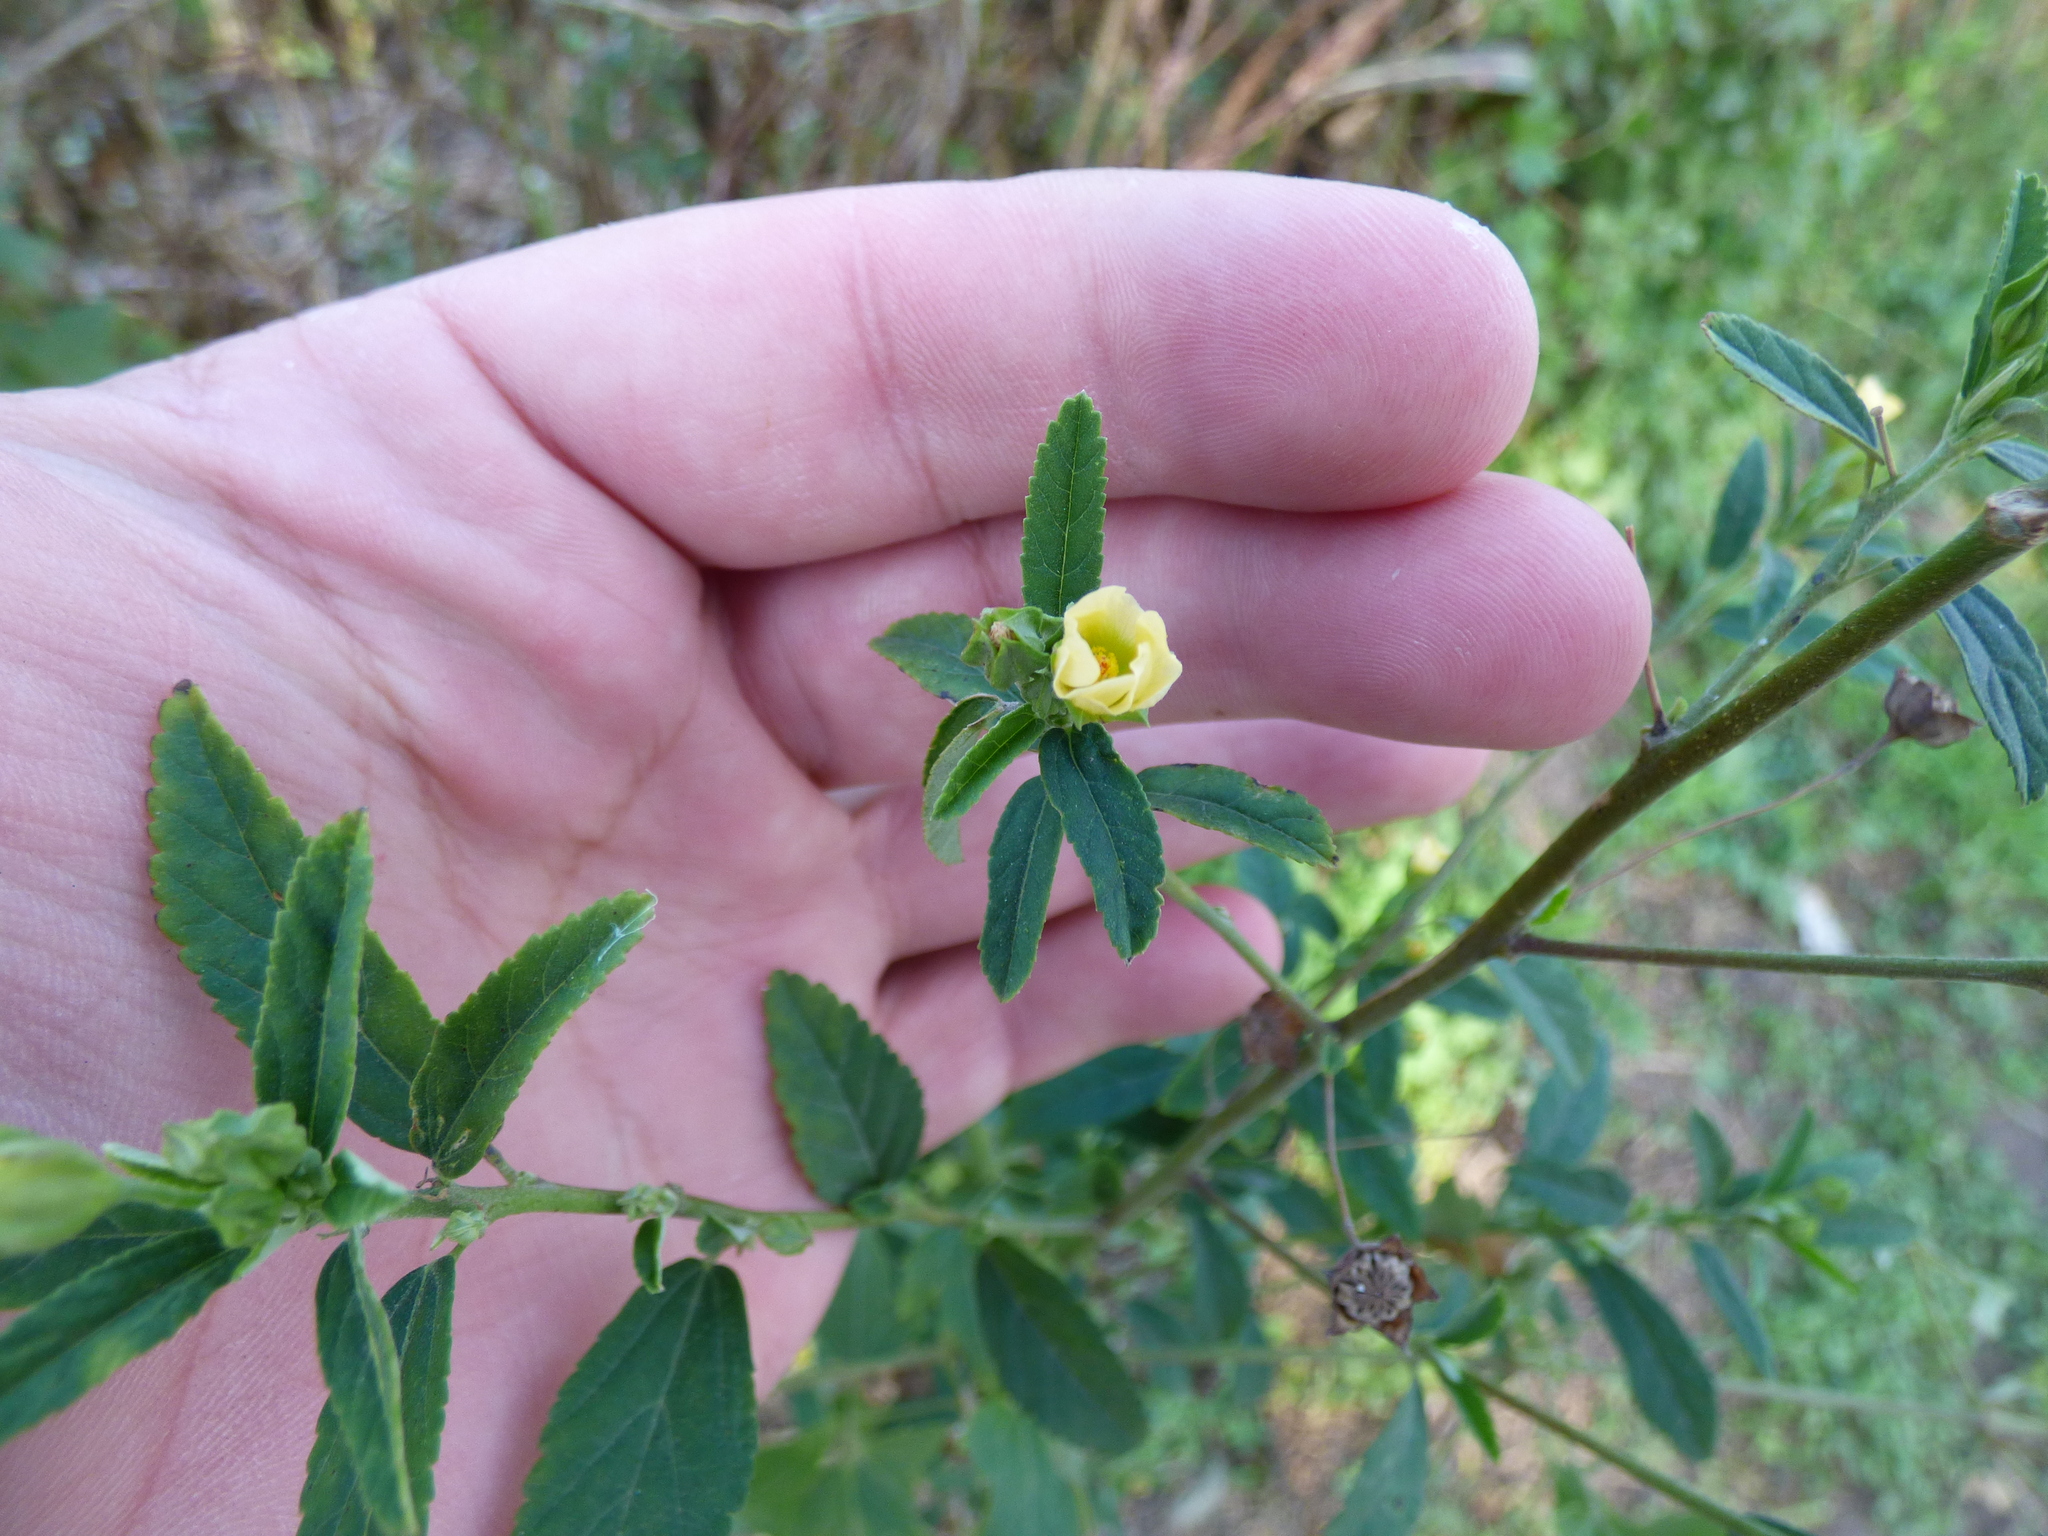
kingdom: Plantae
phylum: Tracheophyta
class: Magnoliopsida
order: Malvales
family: Malvaceae
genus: Sida
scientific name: Sida rhombifolia
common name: Queensland-hemp
